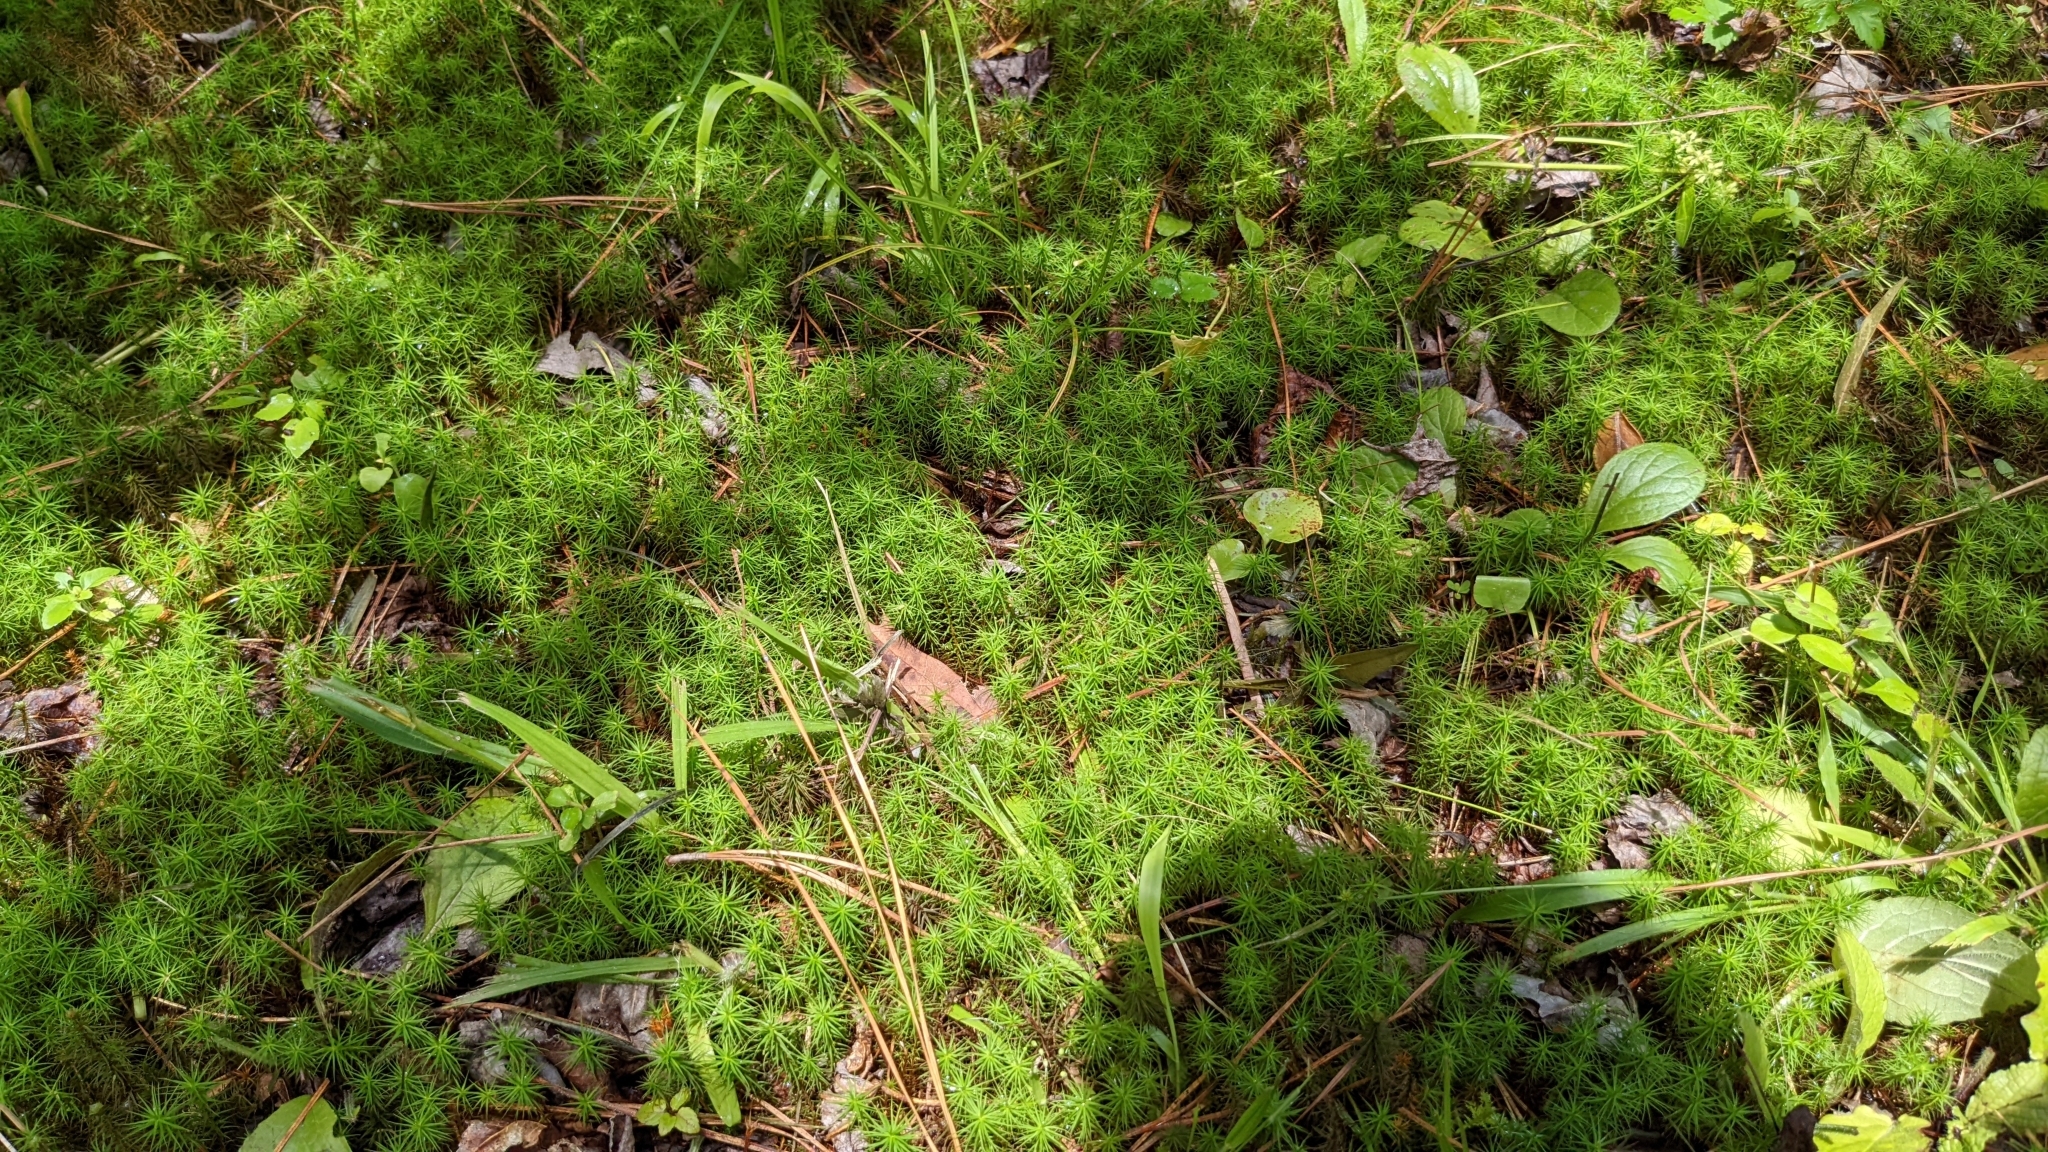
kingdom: Plantae
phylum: Bryophyta
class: Polytrichopsida
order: Polytrichales
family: Polytrichaceae
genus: Polytrichum
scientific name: Polytrichum commune
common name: Common haircap
